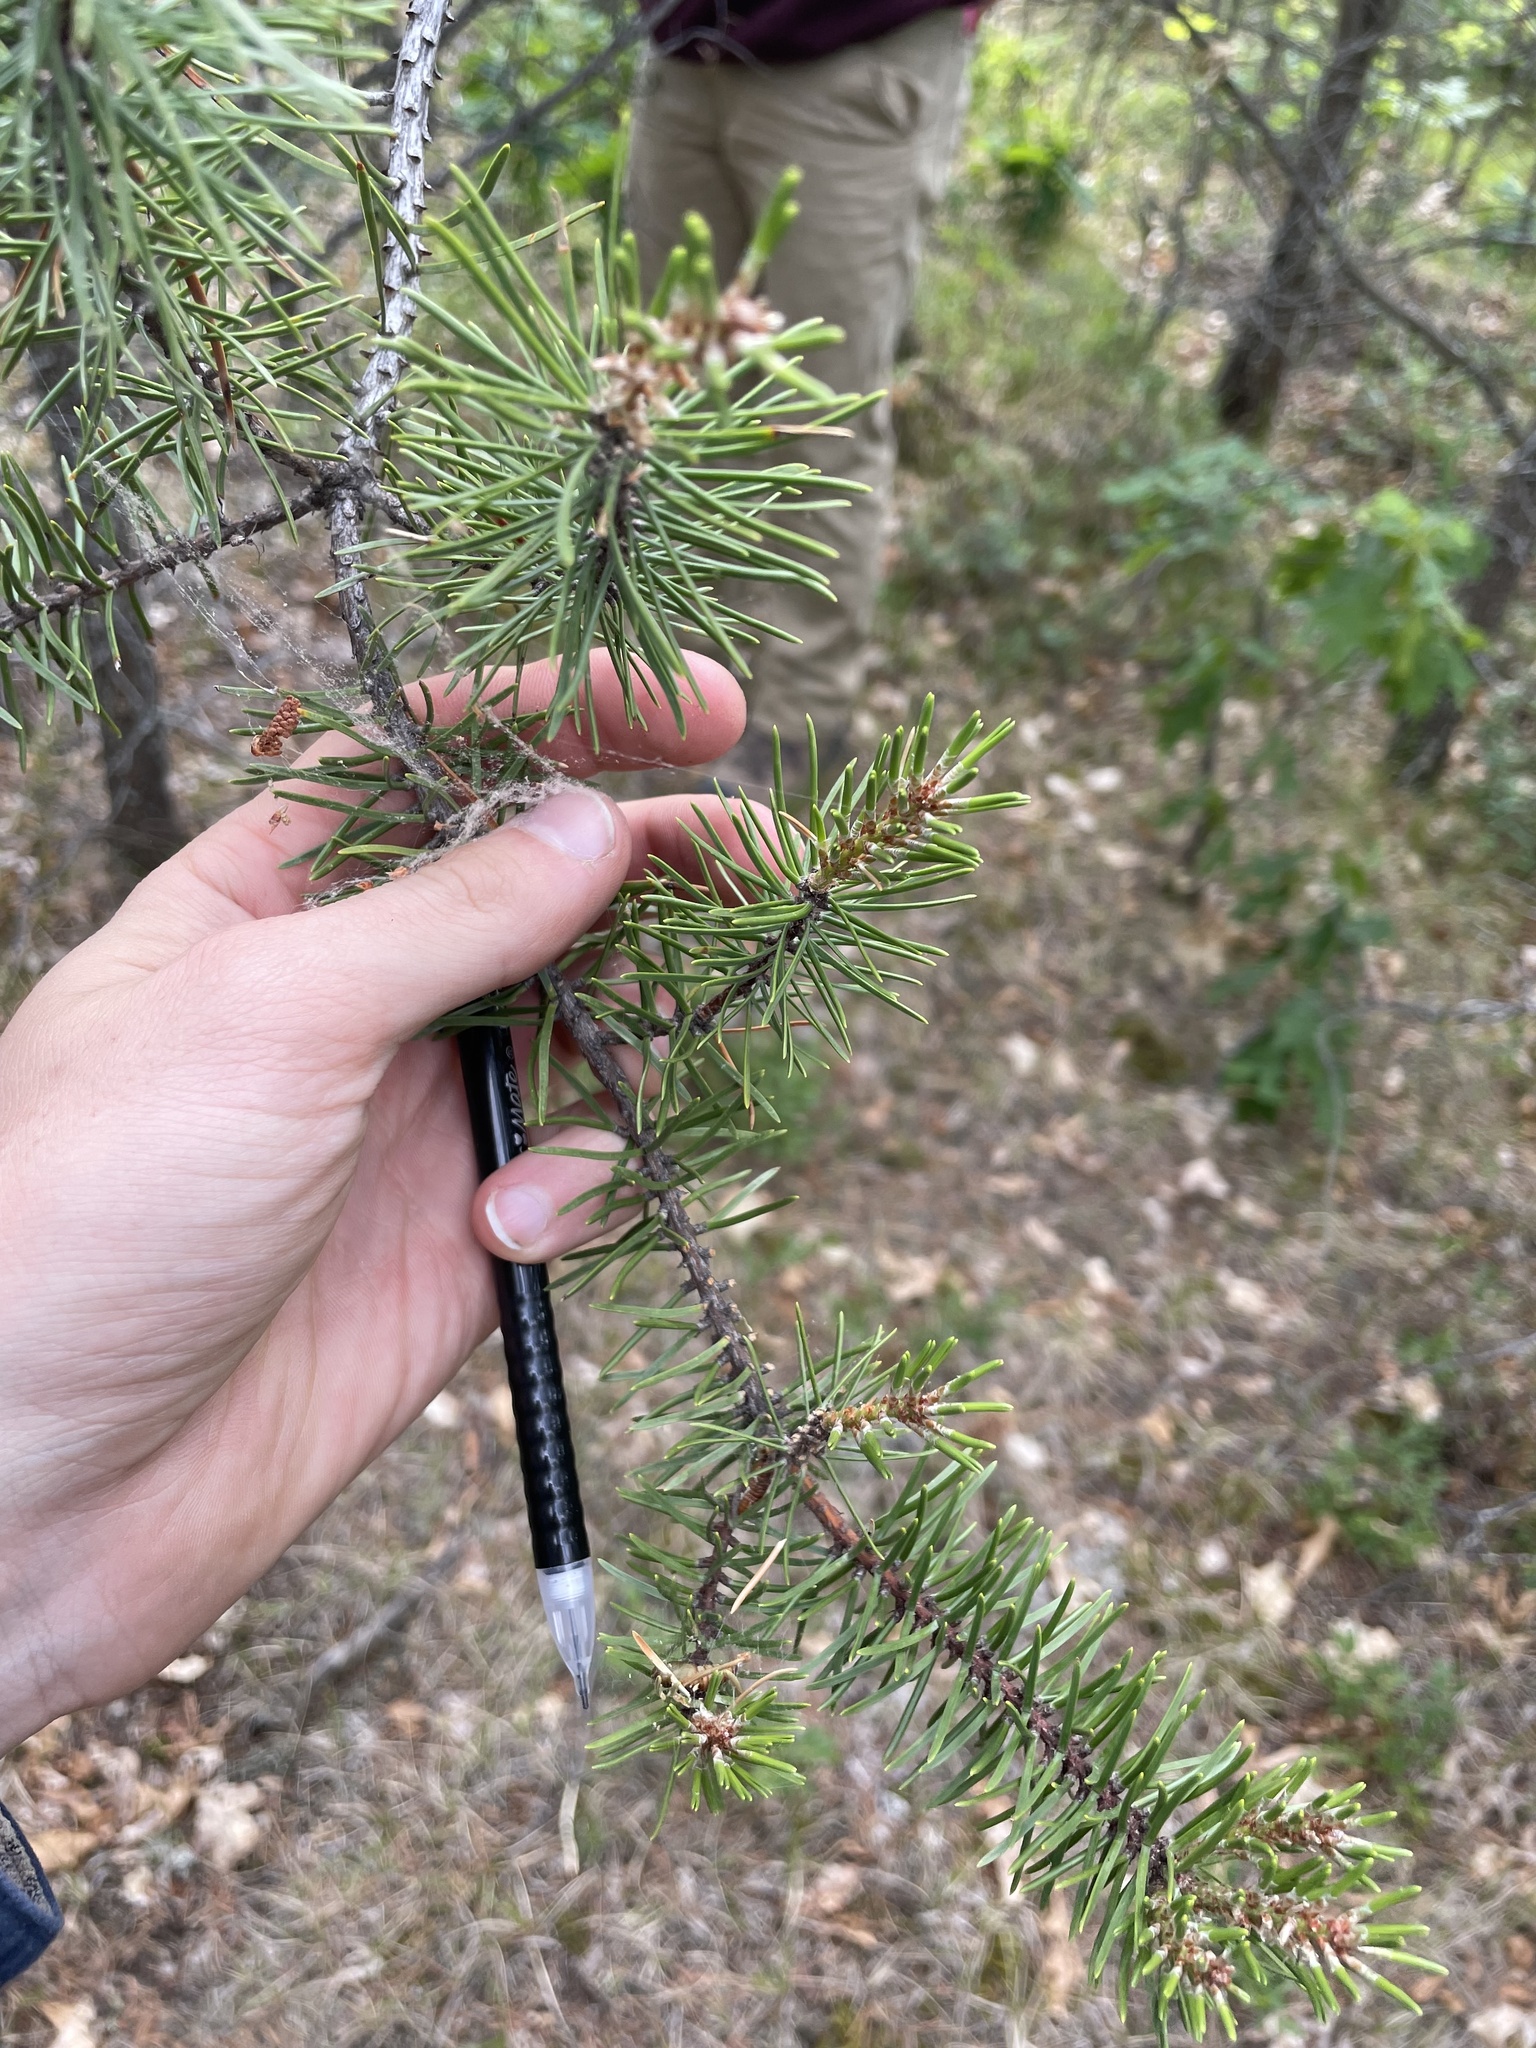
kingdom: Plantae
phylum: Tracheophyta
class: Pinopsida
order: Pinales
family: Pinaceae
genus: Pinus
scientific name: Pinus banksiana
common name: Jack pine
